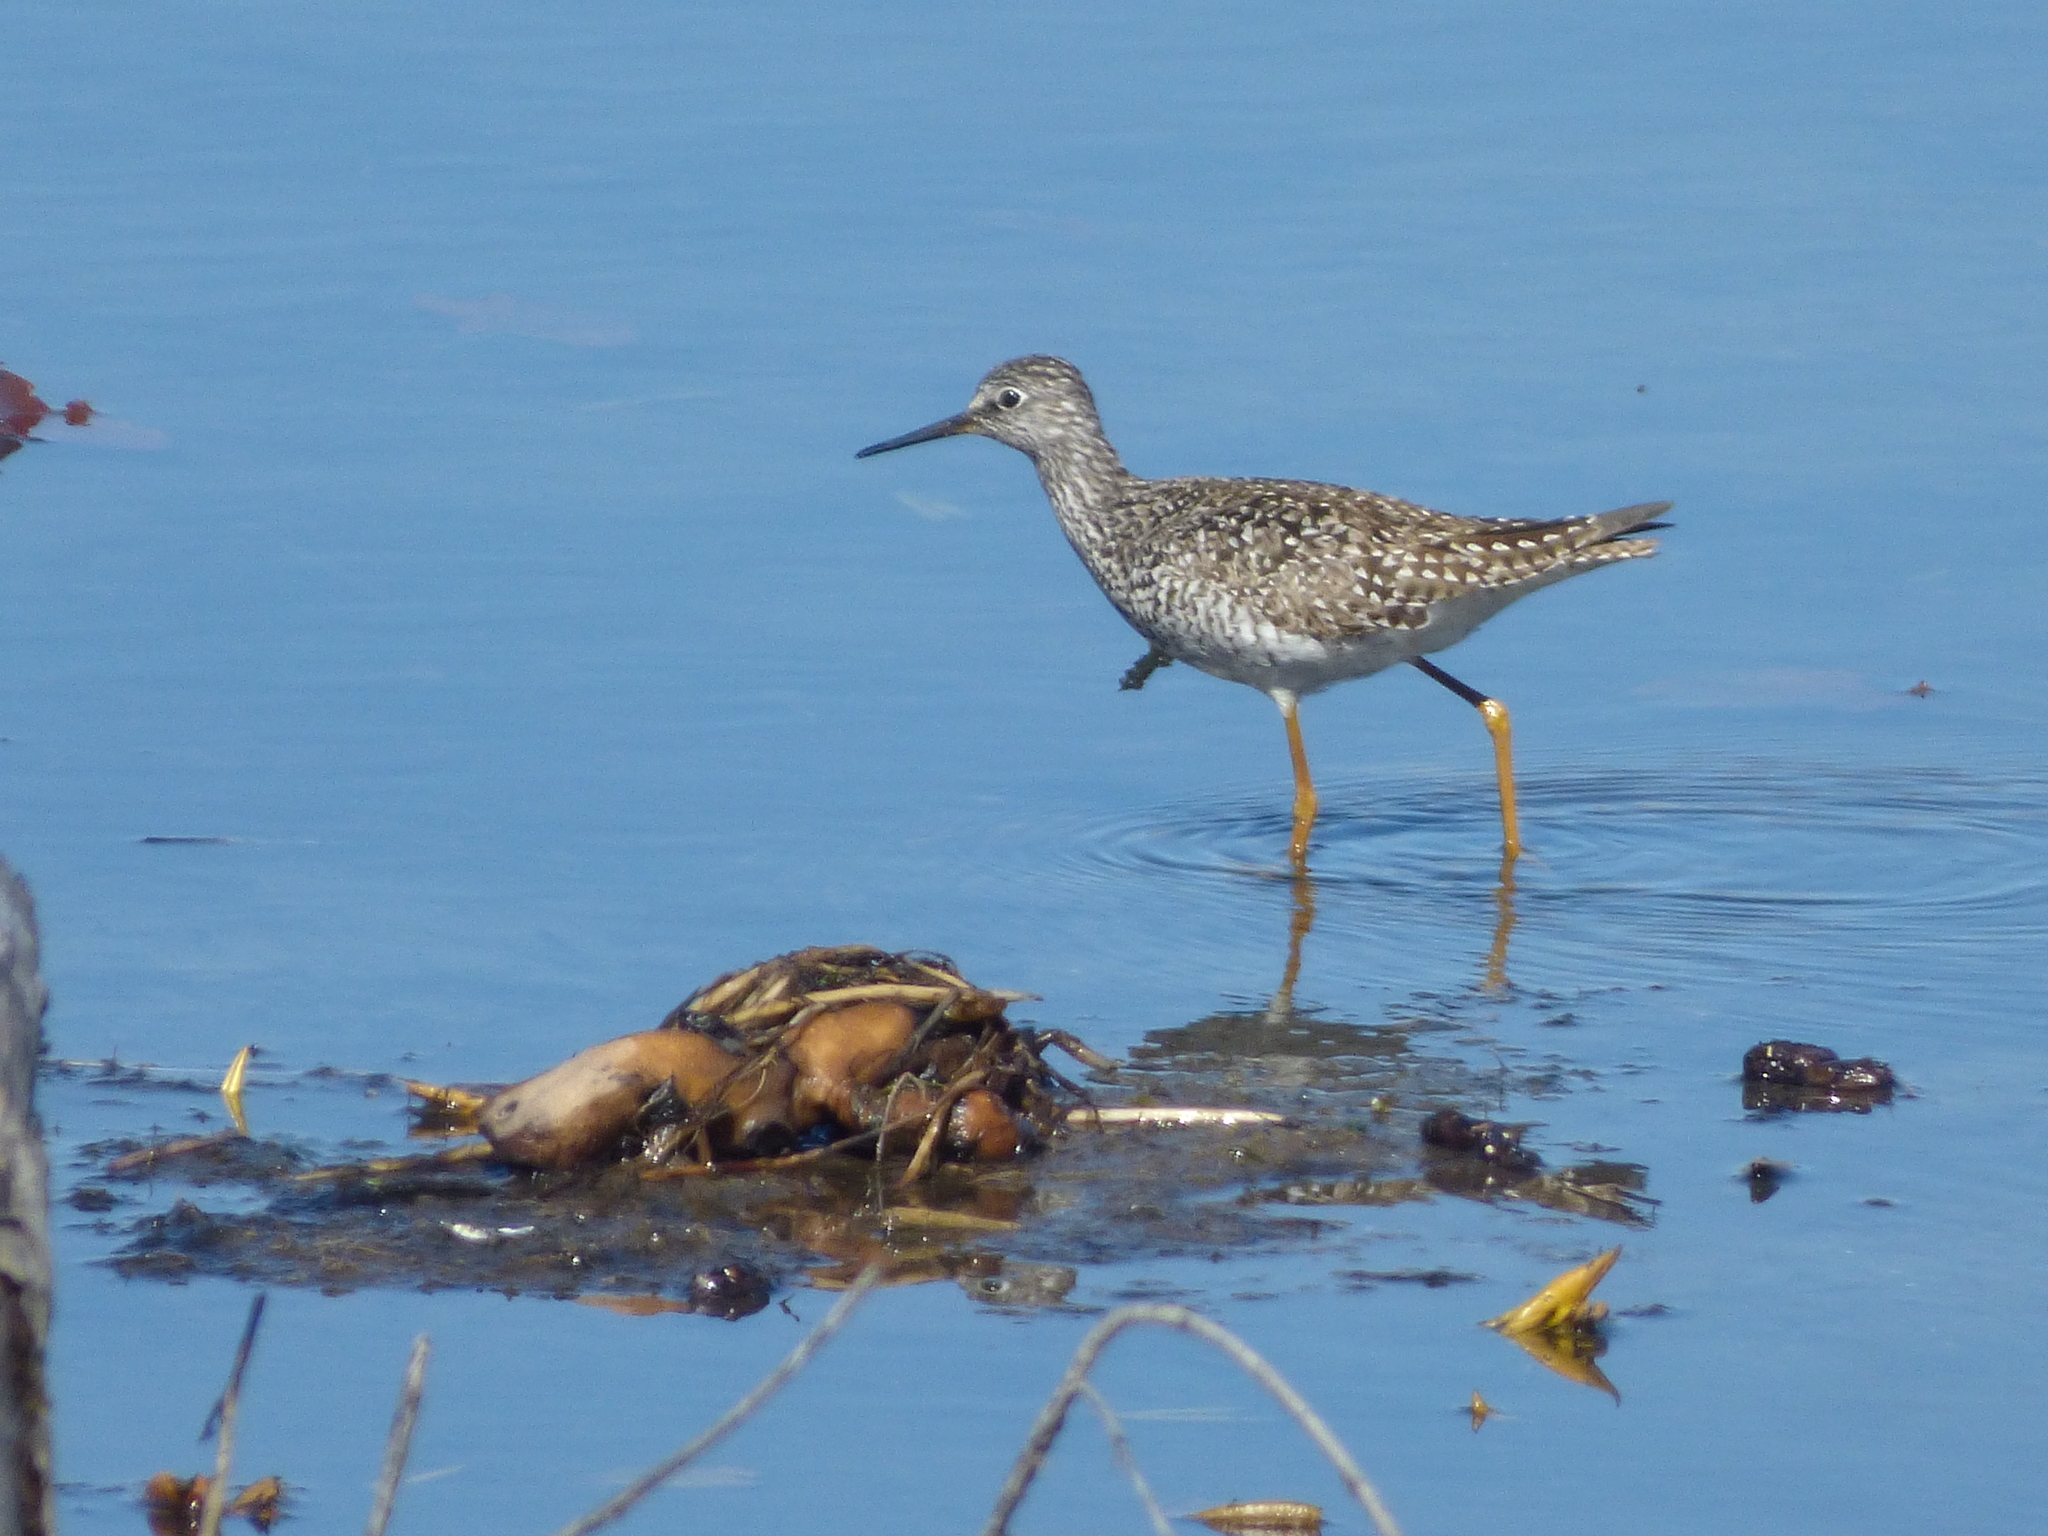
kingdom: Animalia
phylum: Chordata
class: Aves
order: Charadriiformes
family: Scolopacidae
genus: Tringa
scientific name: Tringa flavipes
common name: Lesser yellowlegs
